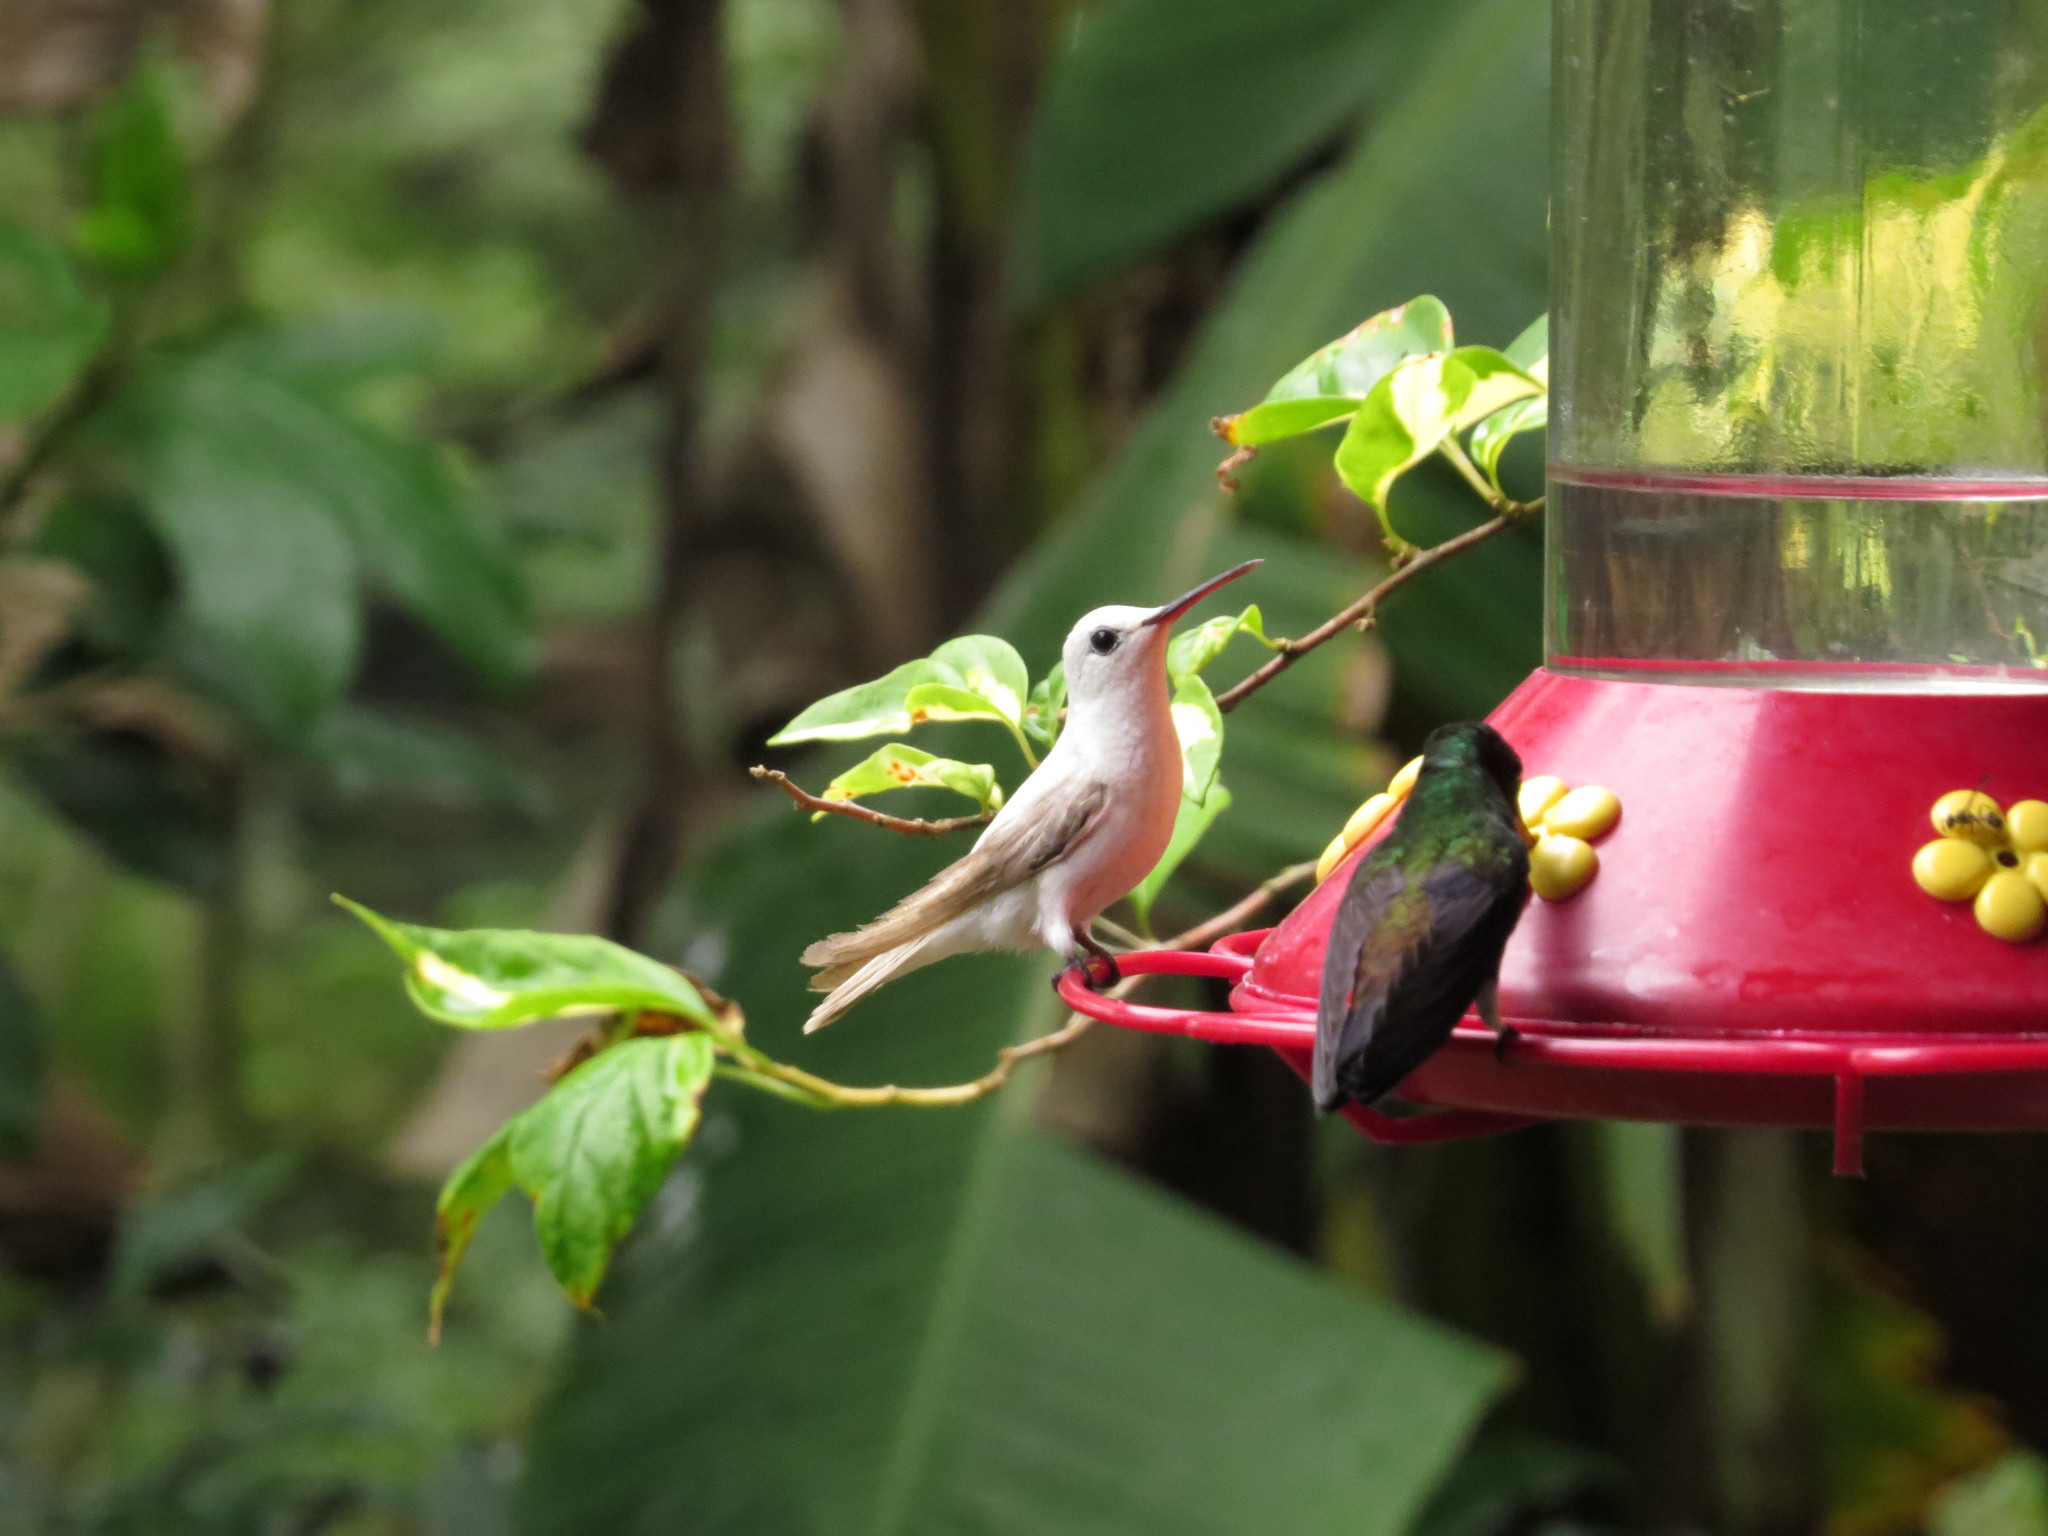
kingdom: Animalia
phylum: Chordata
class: Aves
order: Apodiformes
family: Trochilidae
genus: Saucerottia
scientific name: Saucerottia tobaci
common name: Copper-rumped hummingbird
